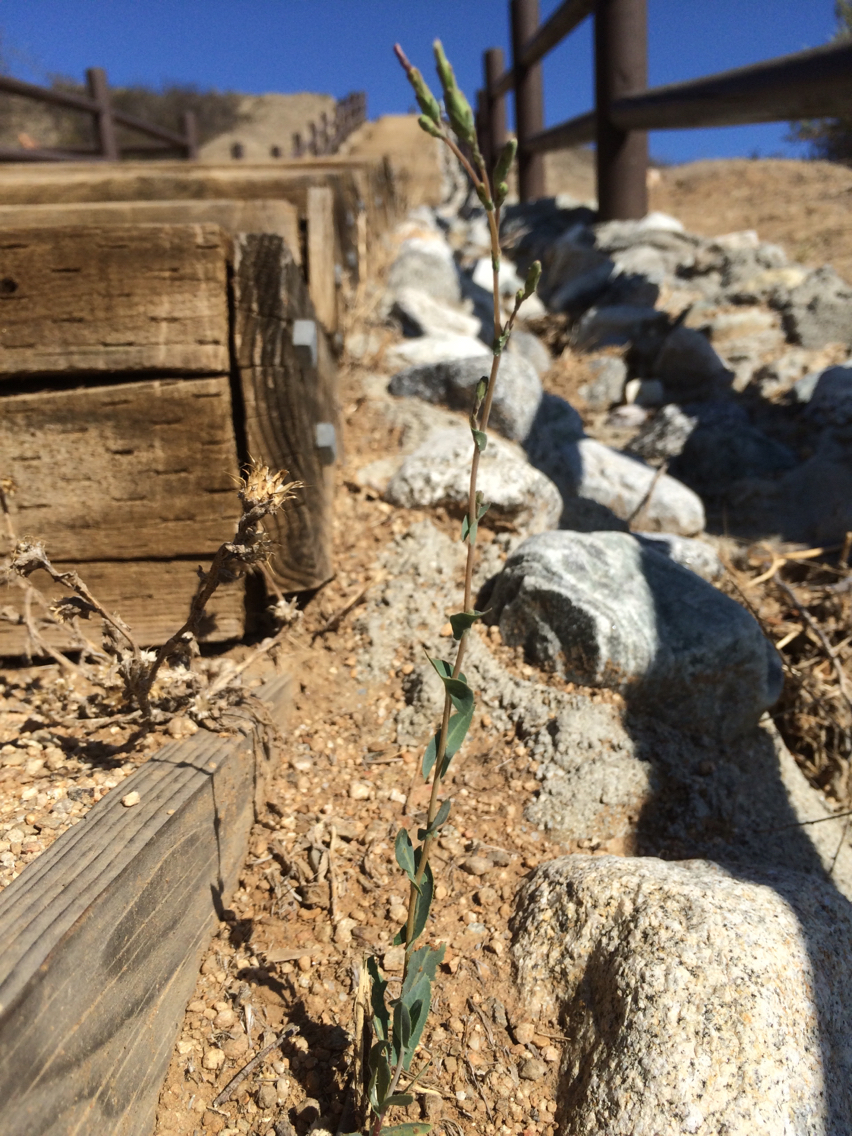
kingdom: Plantae
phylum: Tracheophyta
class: Magnoliopsida
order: Asterales
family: Asteraceae
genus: Lactuca
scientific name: Lactuca serriola
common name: Prickly lettuce
